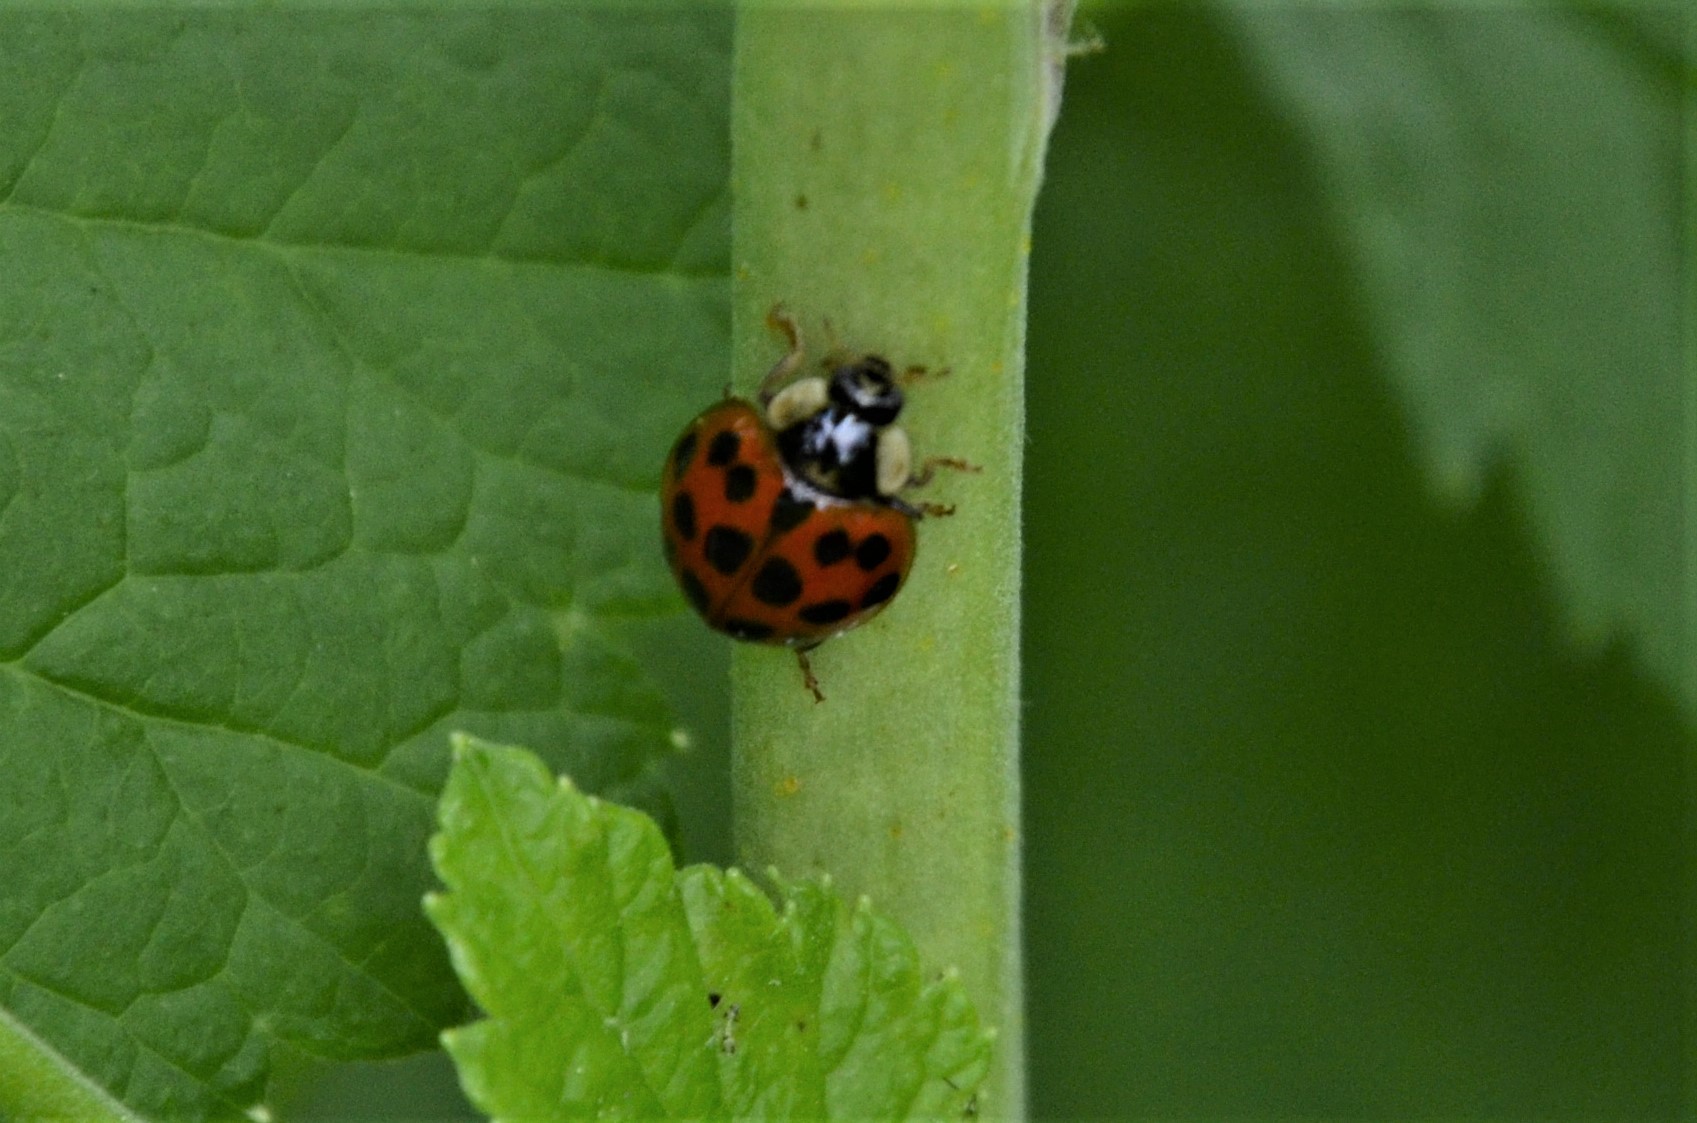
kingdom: Animalia
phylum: Arthropoda
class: Insecta
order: Coleoptera
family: Coccinellidae
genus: Harmonia
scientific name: Harmonia axyridis
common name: Harlequin ladybird
